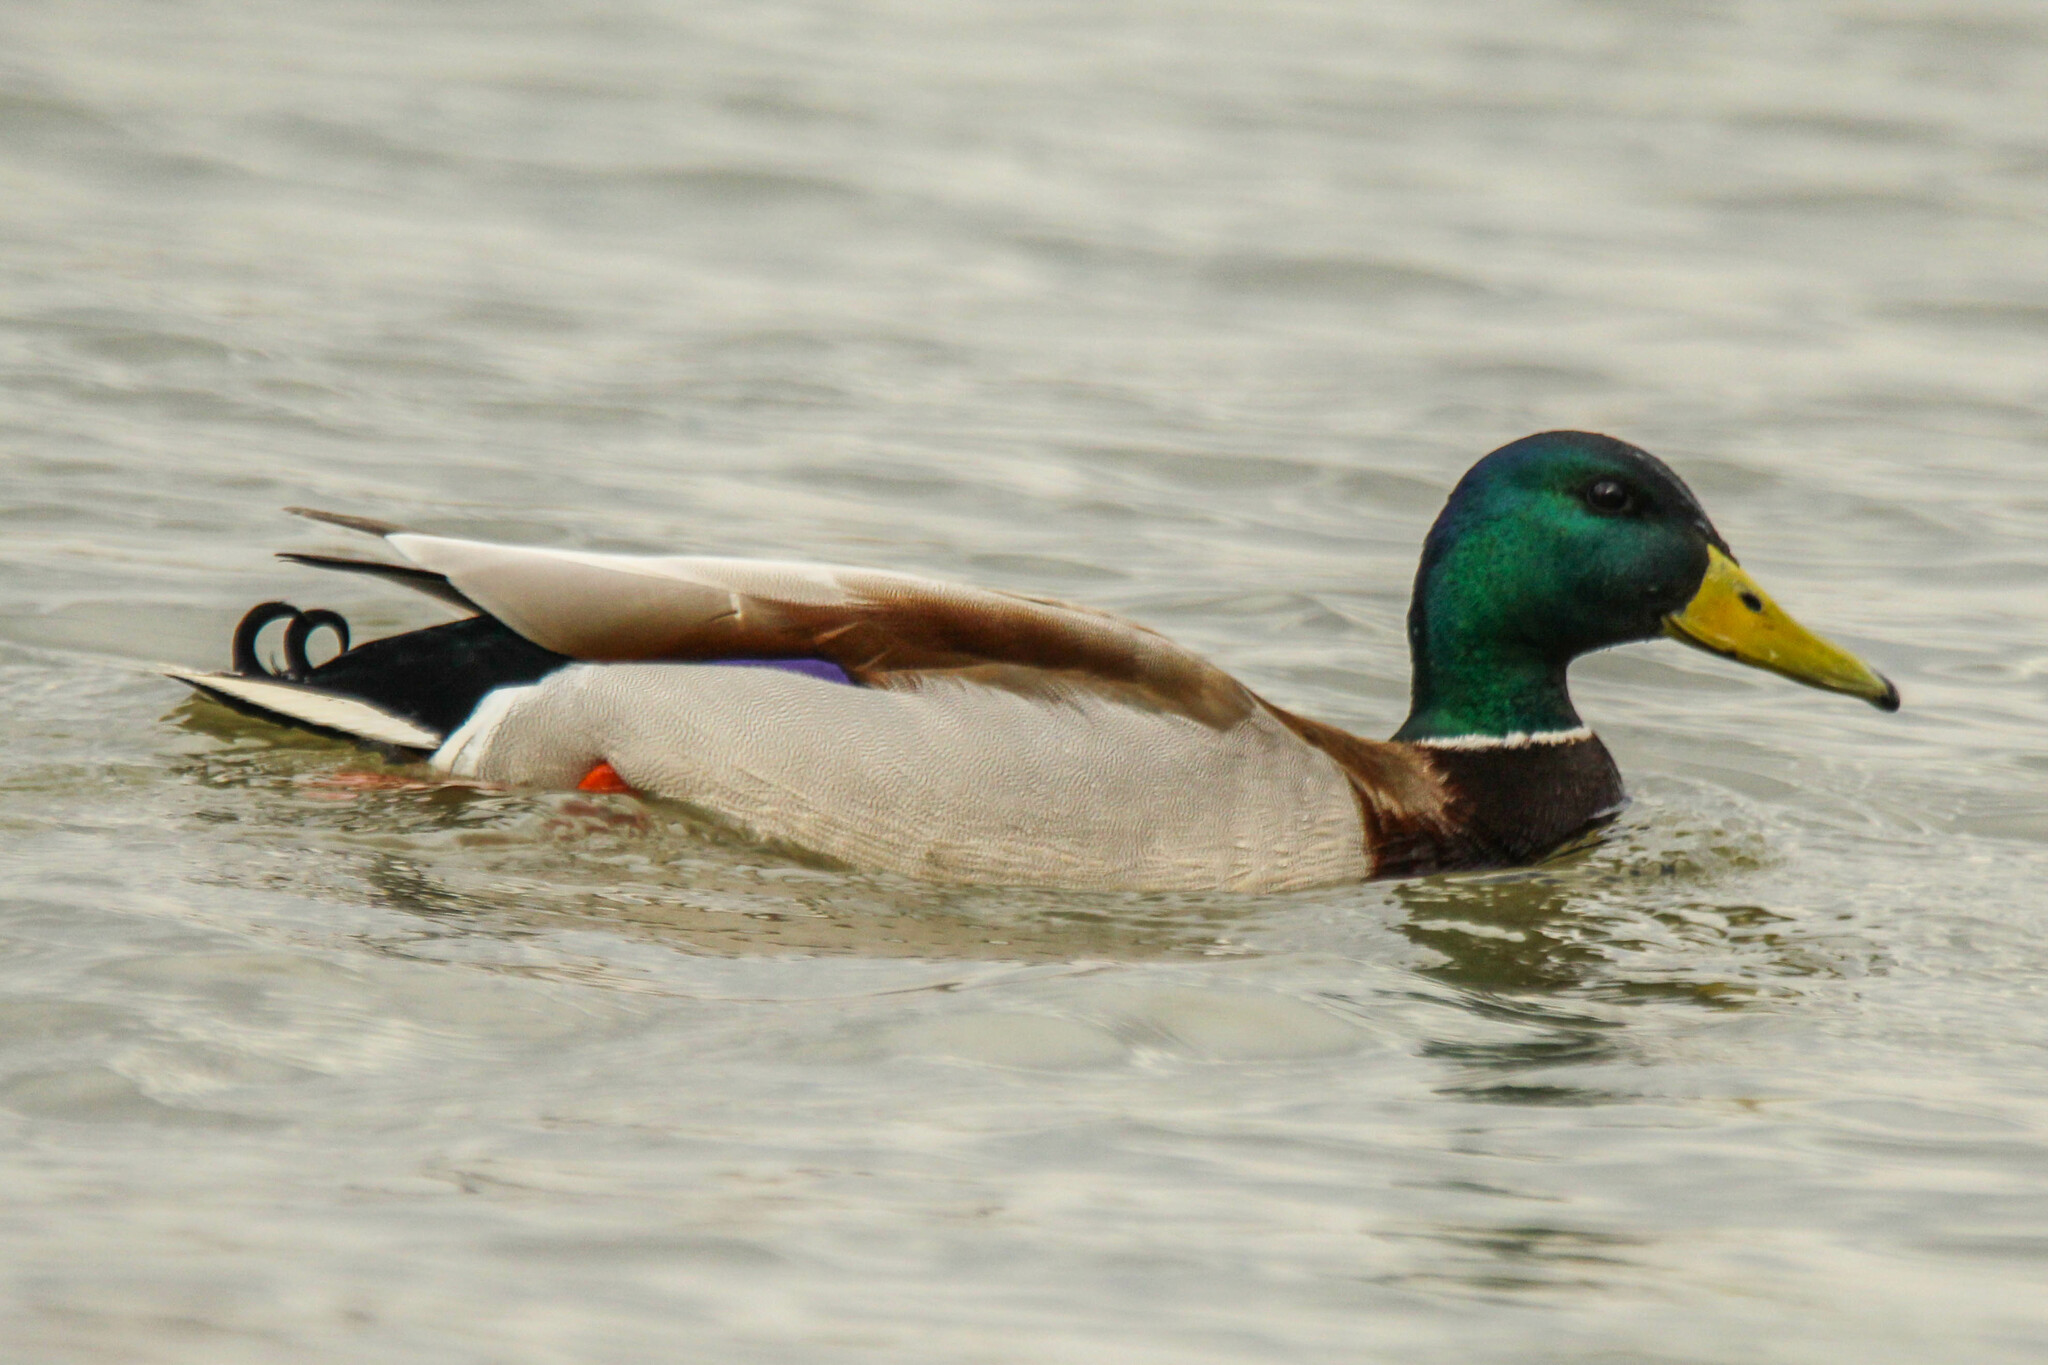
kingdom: Animalia
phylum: Chordata
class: Aves
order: Anseriformes
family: Anatidae
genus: Anas
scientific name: Anas platyrhynchos
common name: Mallard
